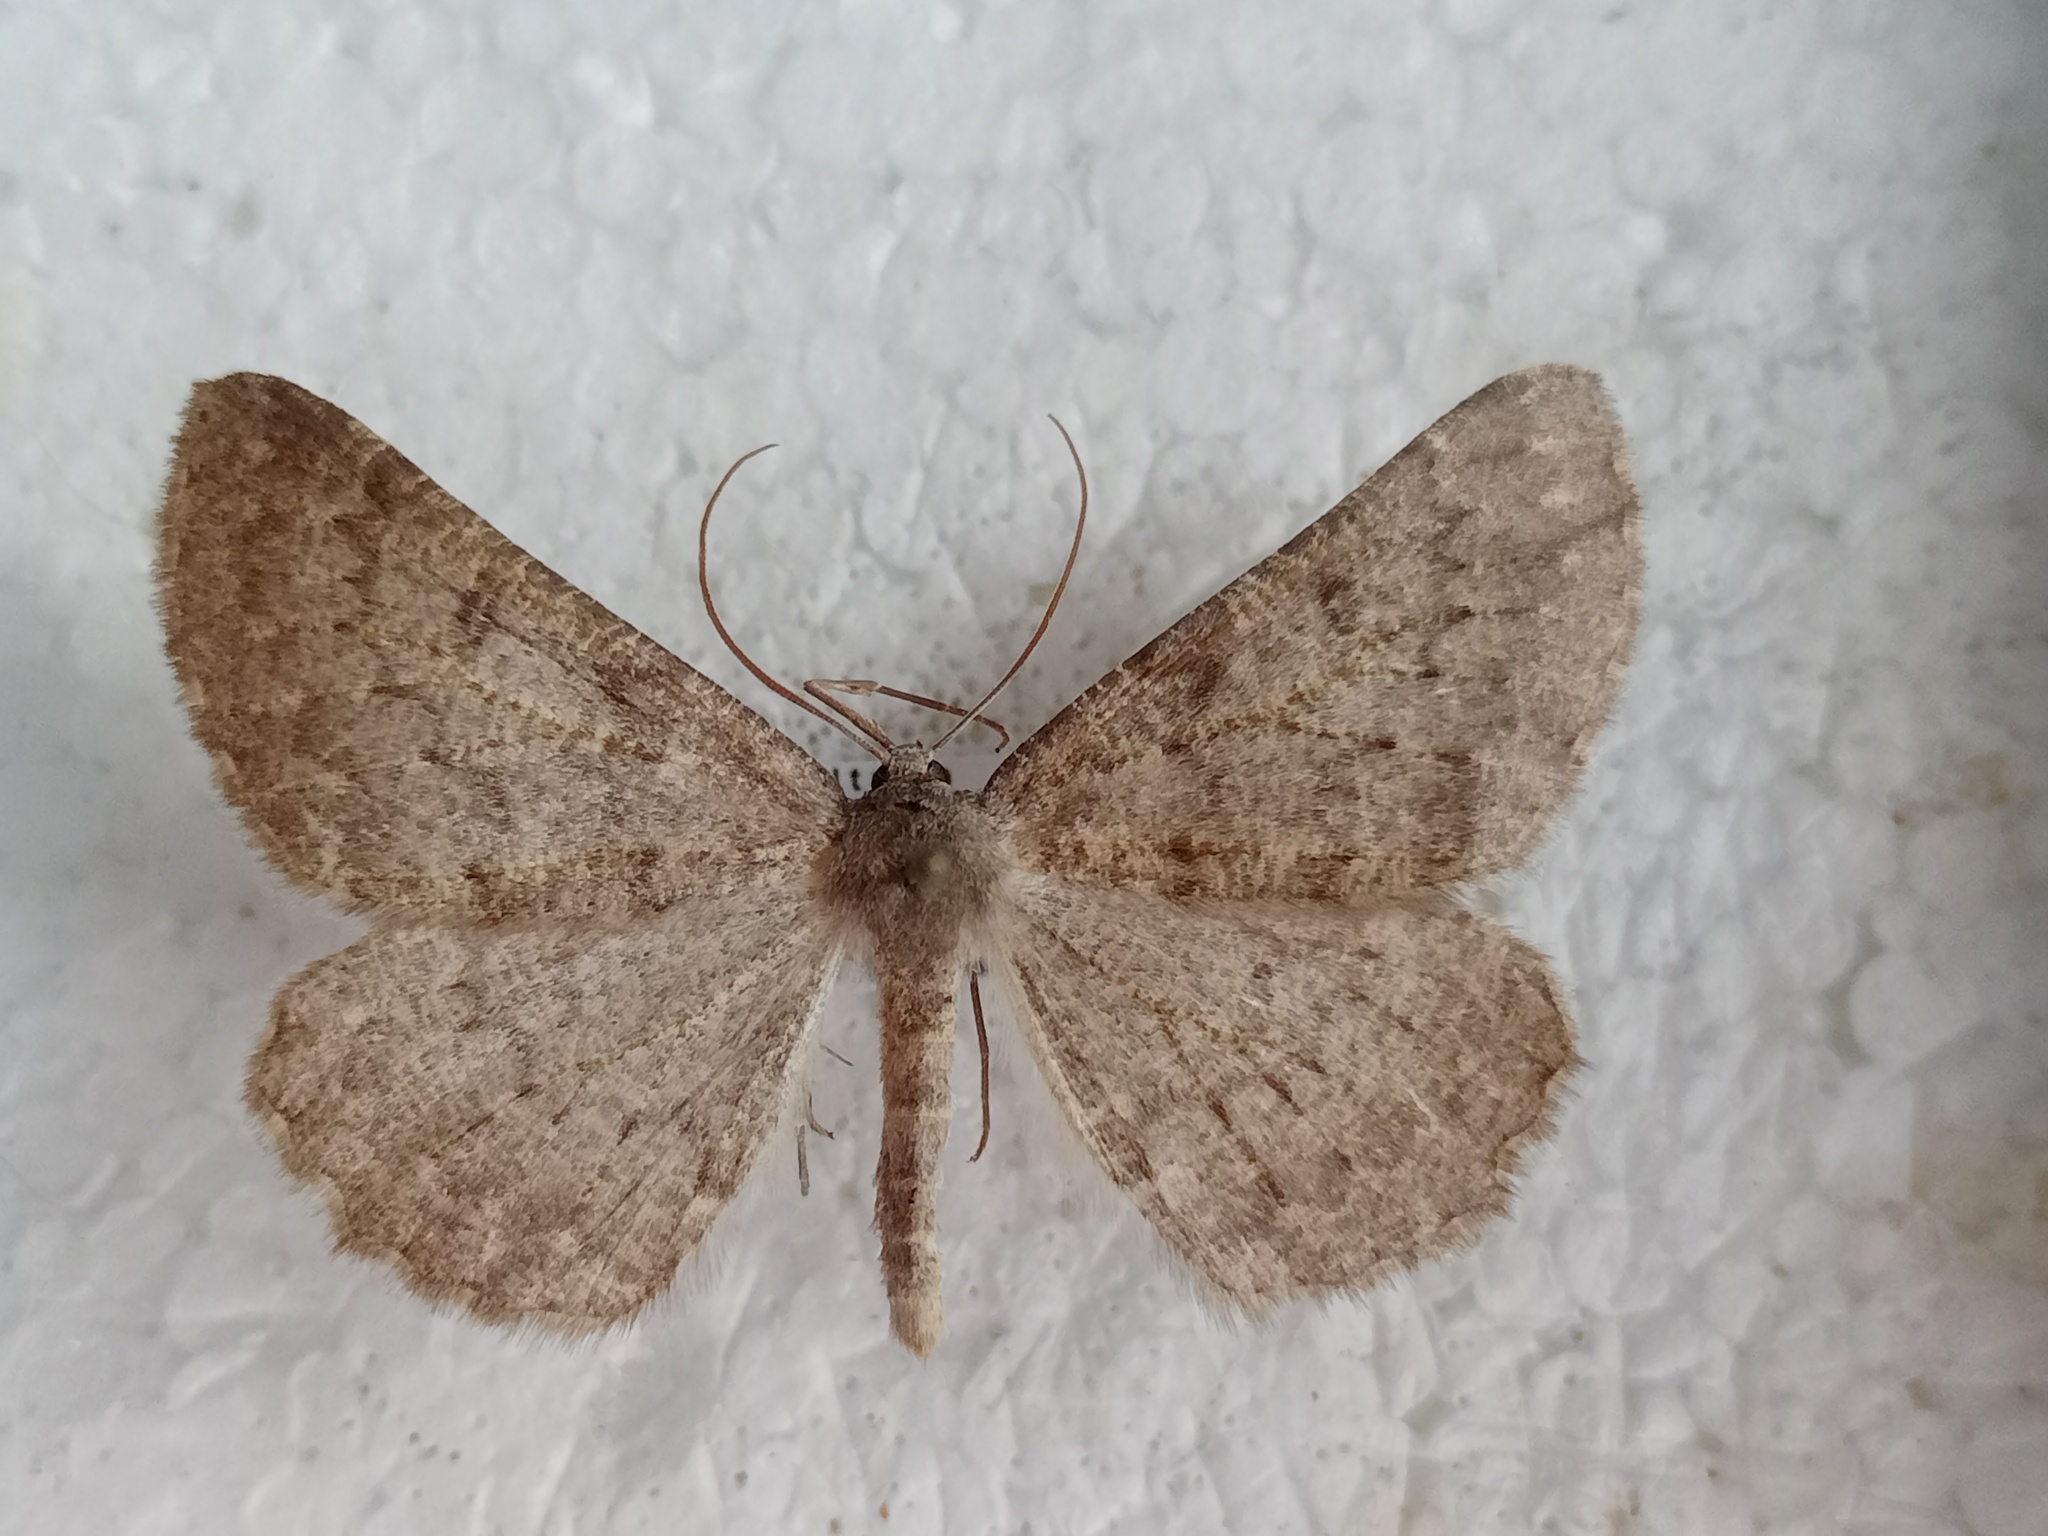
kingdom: Animalia
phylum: Arthropoda
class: Insecta
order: Lepidoptera
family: Geometridae
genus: Gnophos
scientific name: Gnophos obfuscata
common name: Scottish annulet
